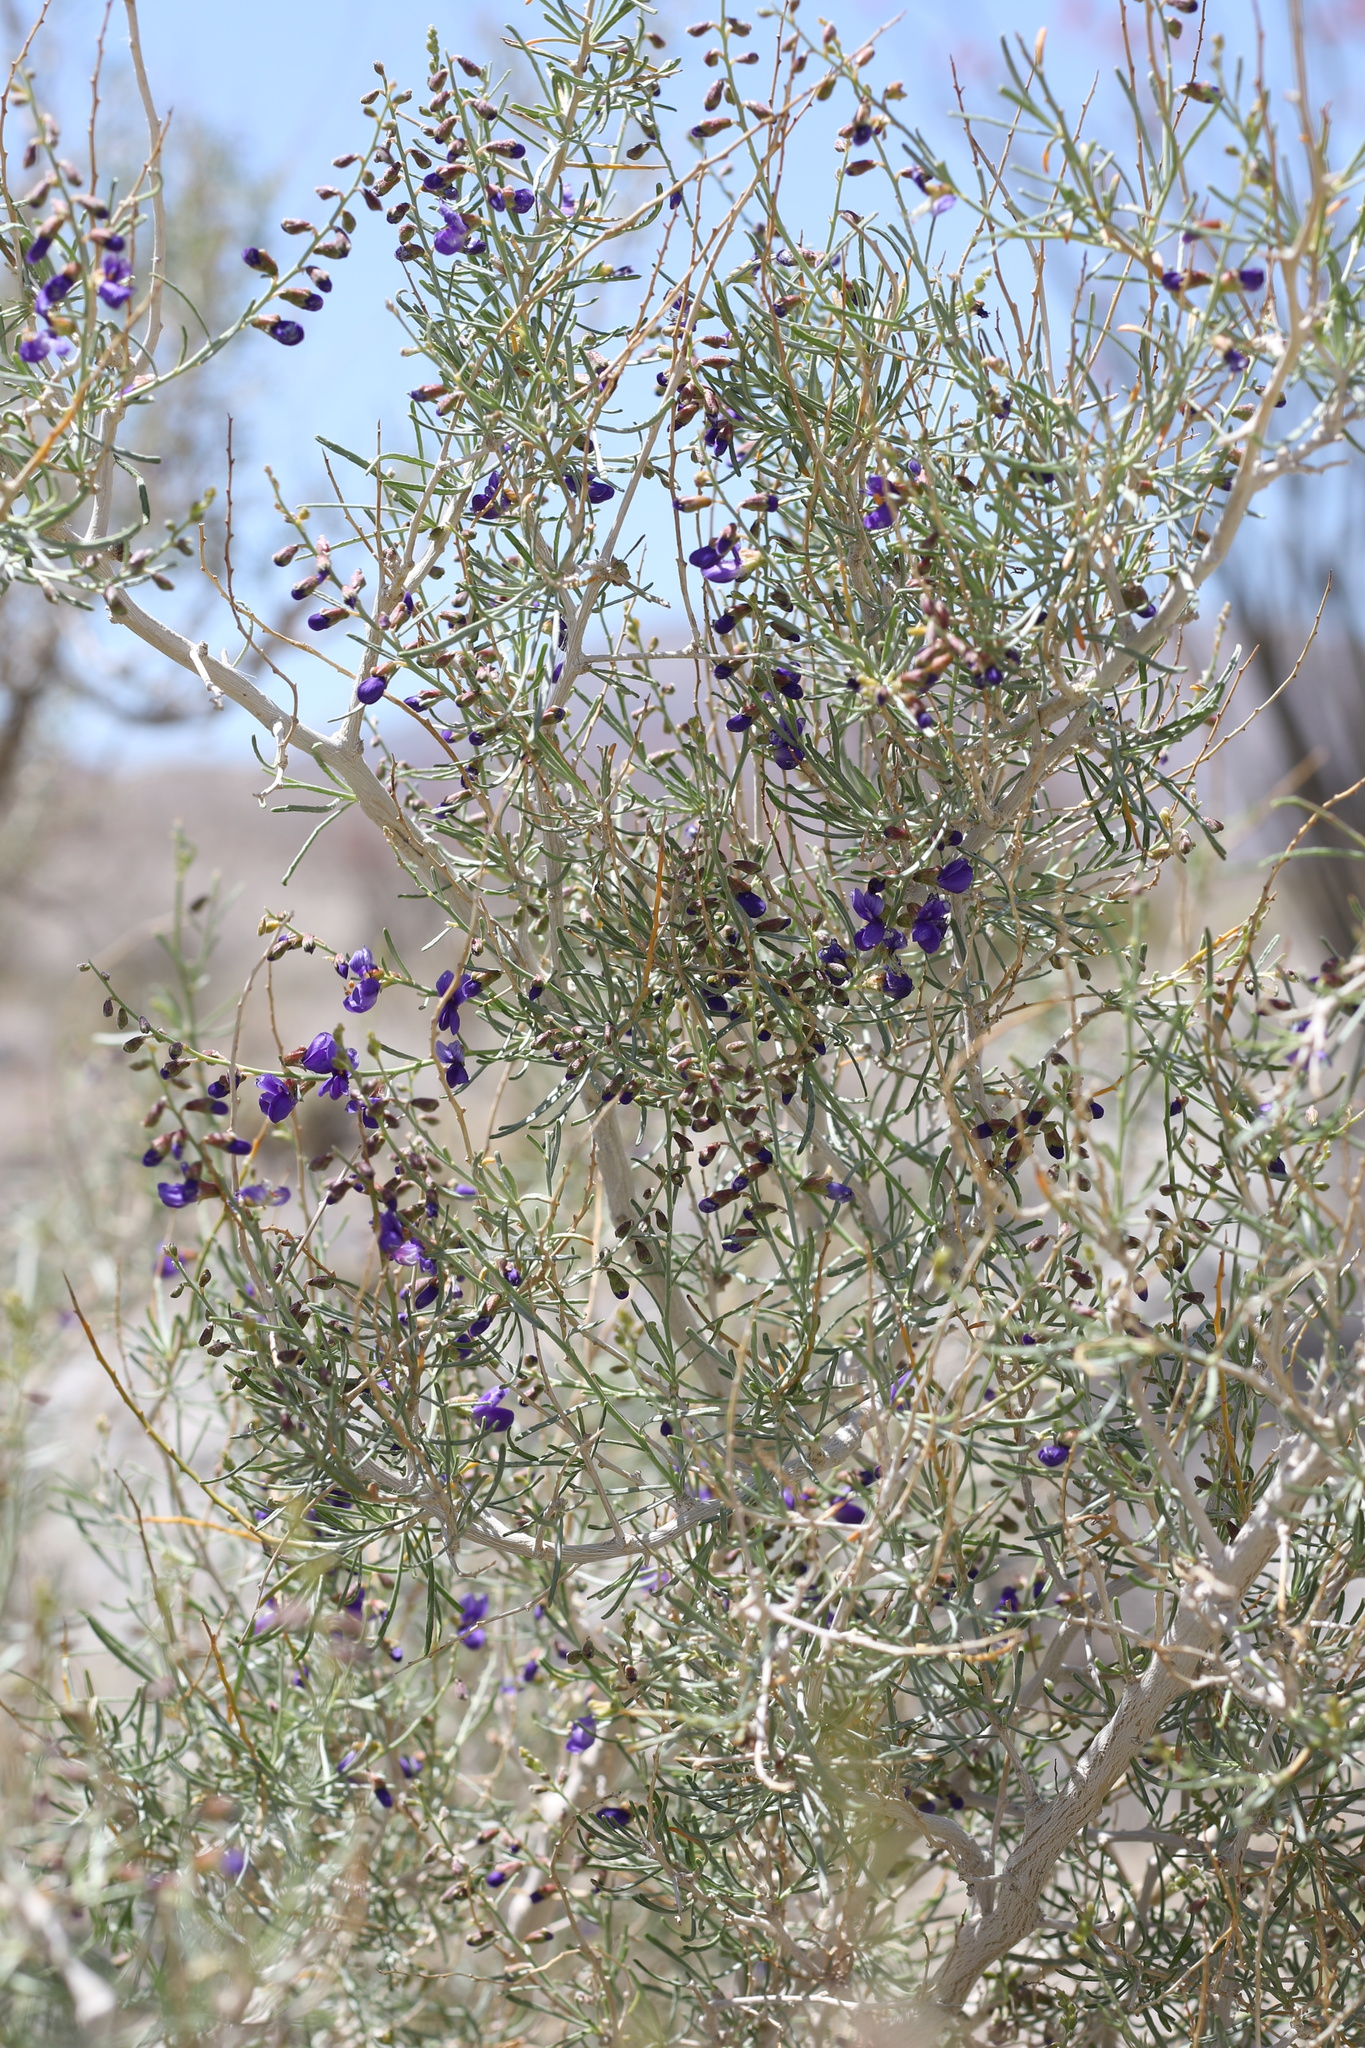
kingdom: Plantae
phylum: Tracheophyta
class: Magnoliopsida
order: Fabales
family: Fabaceae
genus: Psorothamnus
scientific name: Psorothamnus schottii
